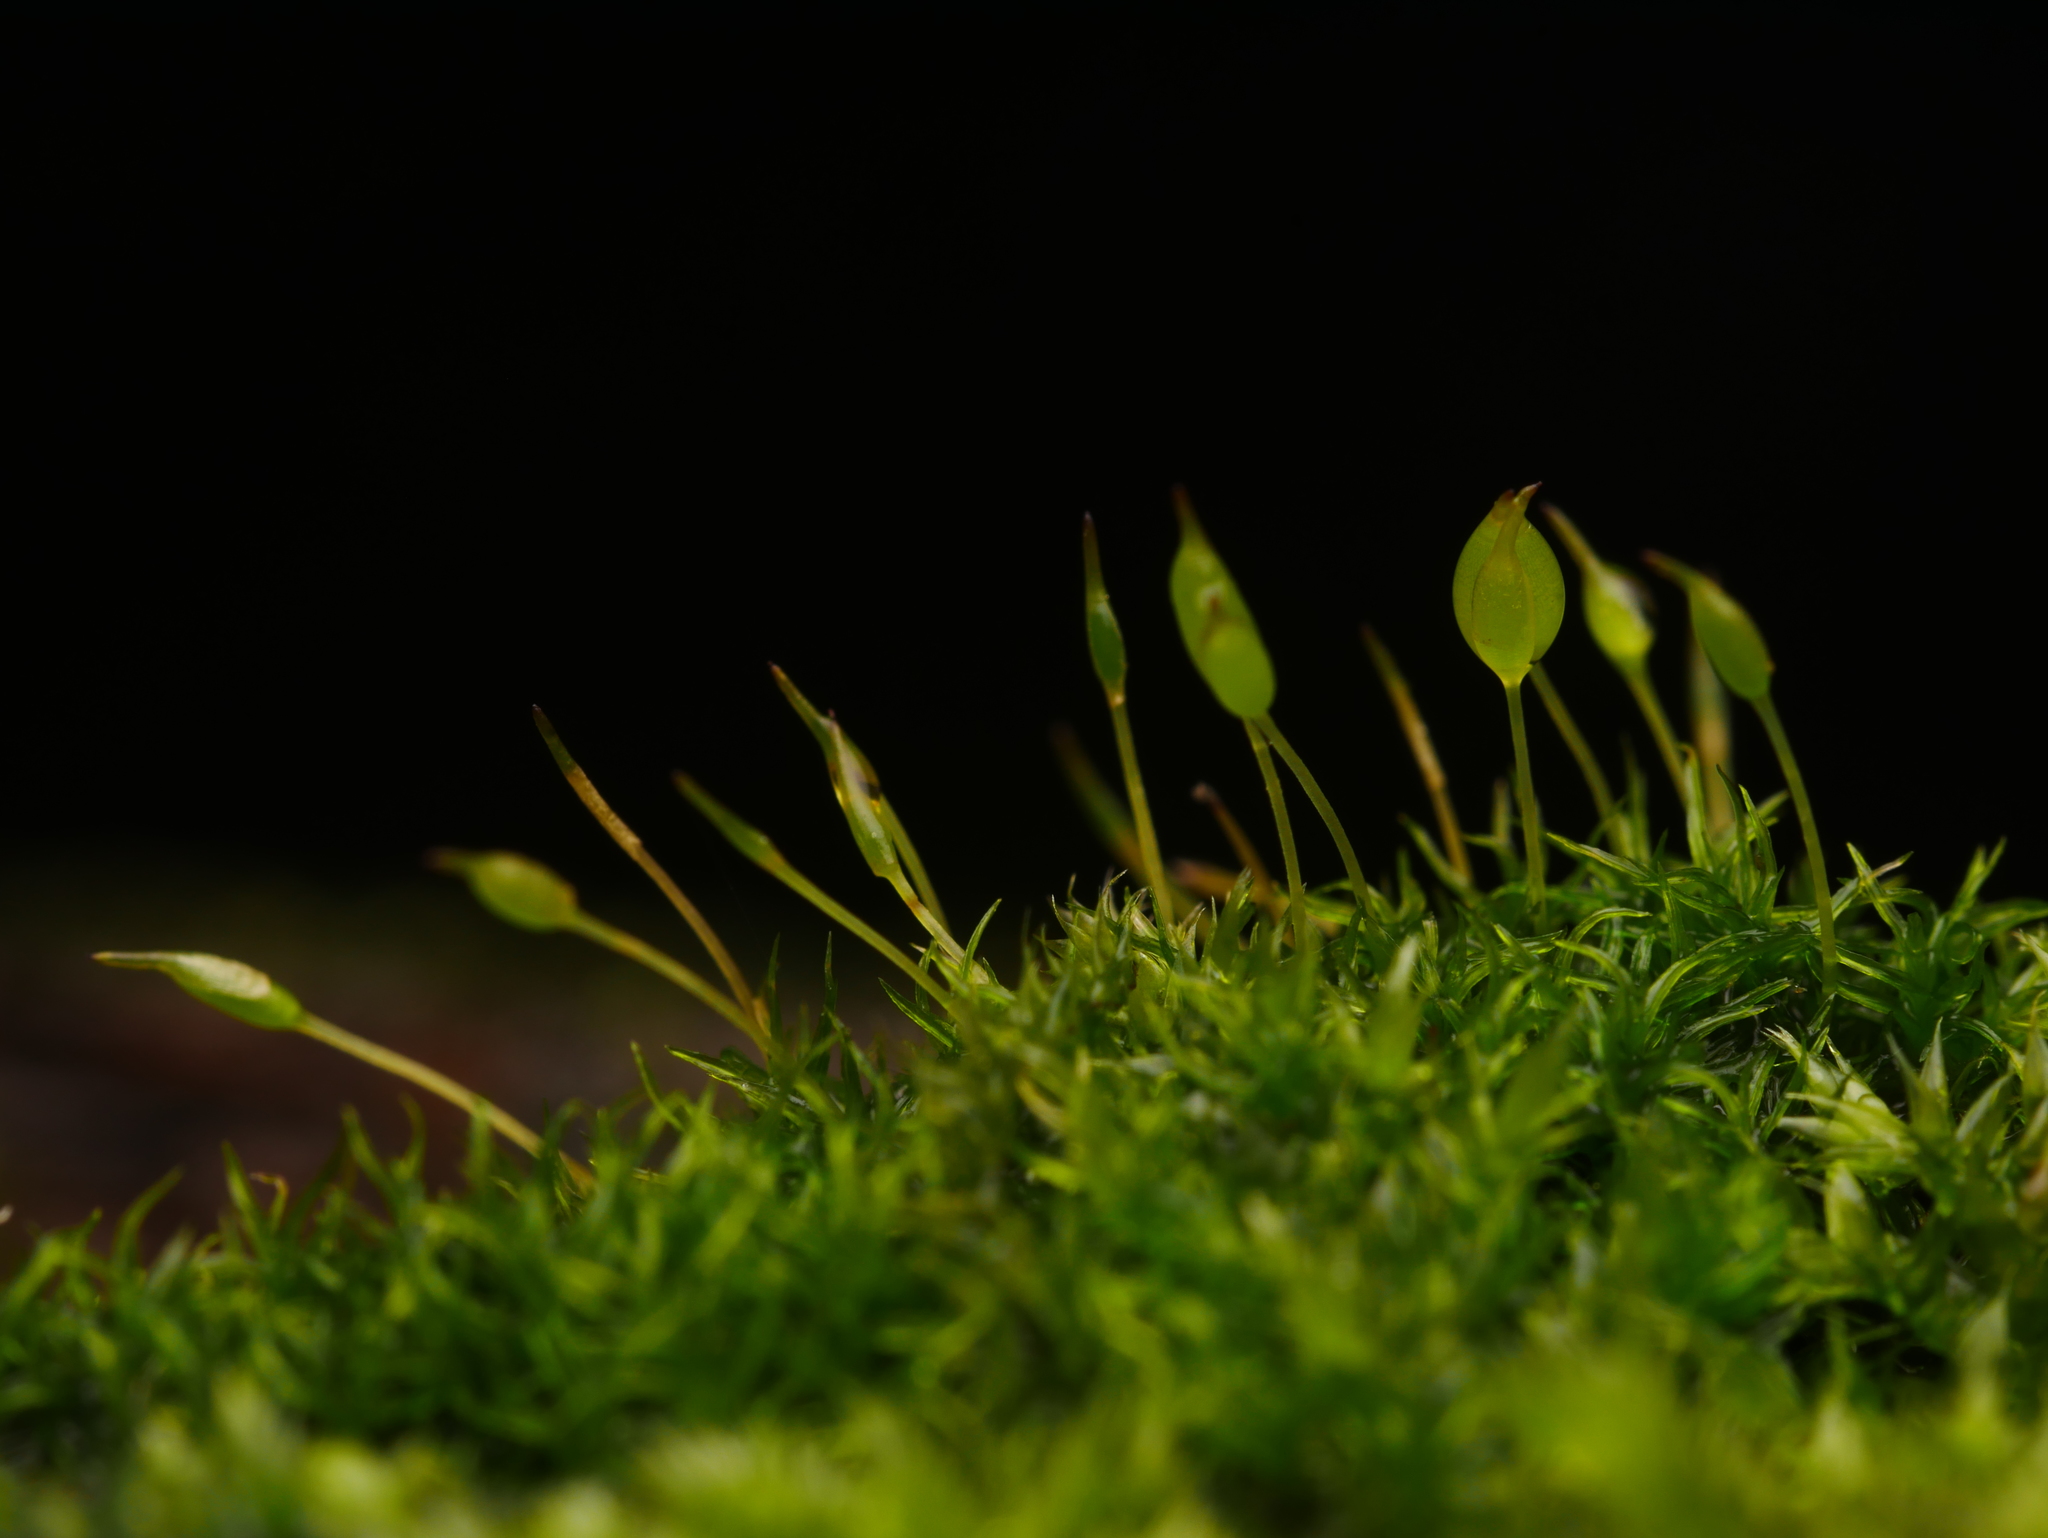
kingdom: Plantae
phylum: Bryophyta
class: Bryopsida
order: Dicranales
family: Rhabdoweisiaceae
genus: Dicranoweisia
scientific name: Dicranoweisia cirrata
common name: Common pincushion
